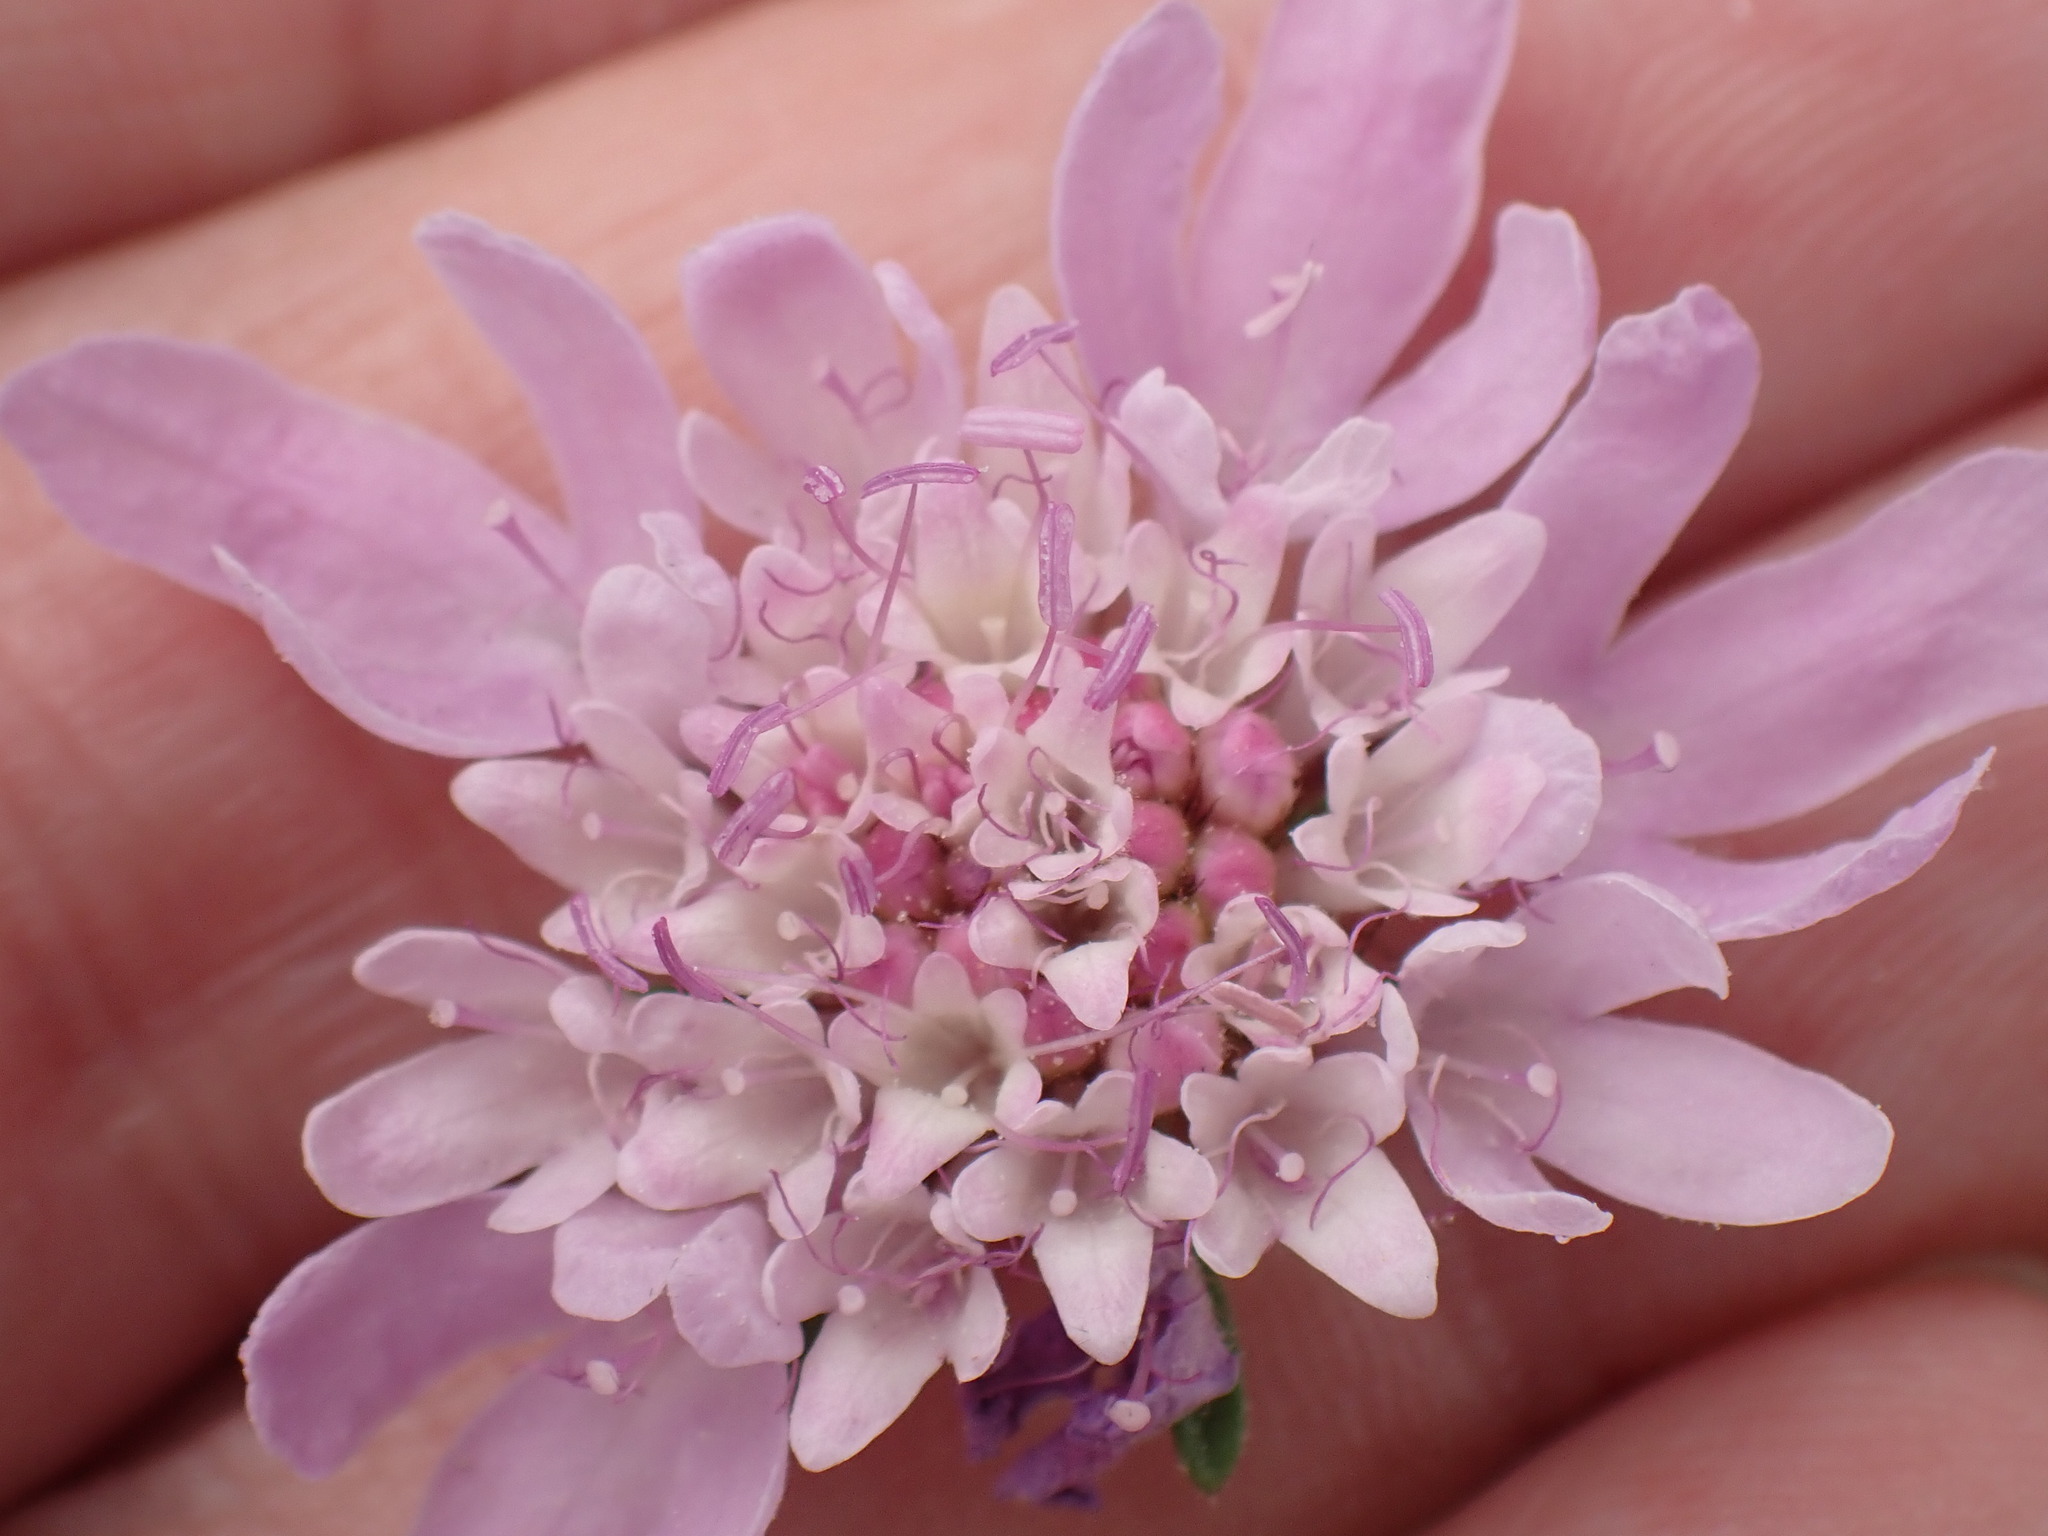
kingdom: Plantae
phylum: Tracheophyta
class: Magnoliopsida
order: Dipsacales
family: Caprifoliaceae
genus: Scabiosa
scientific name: Scabiosa columbaria
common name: Small scabious
